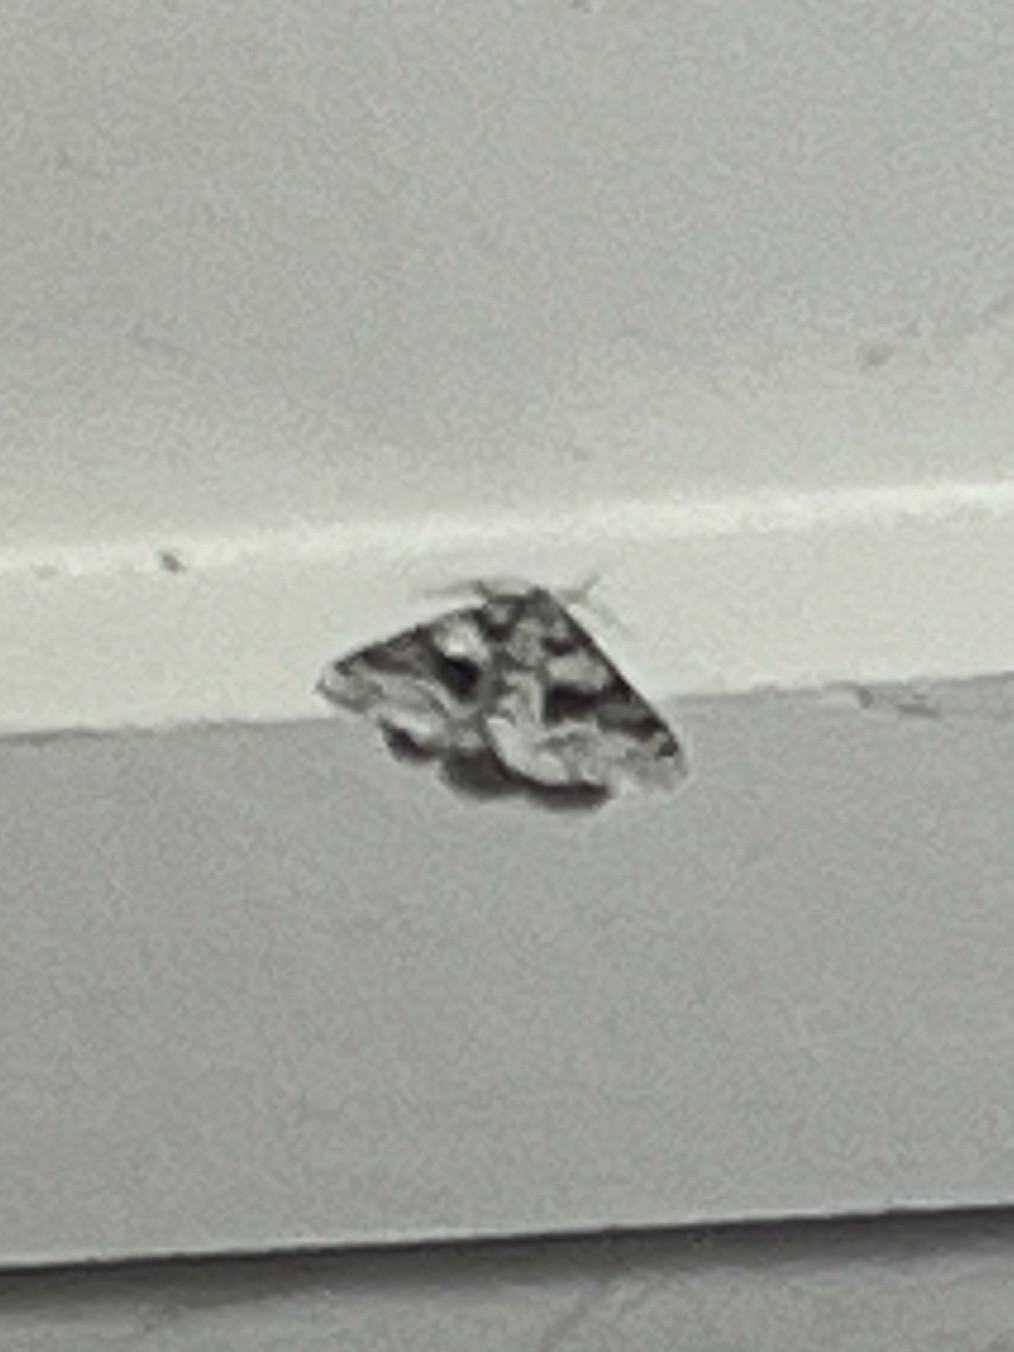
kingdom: Animalia
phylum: Arthropoda
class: Insecta
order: Lepidoptera
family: Geometridae
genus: Phigalia
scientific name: Phigalia denticulata
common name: Toothed phigalia
